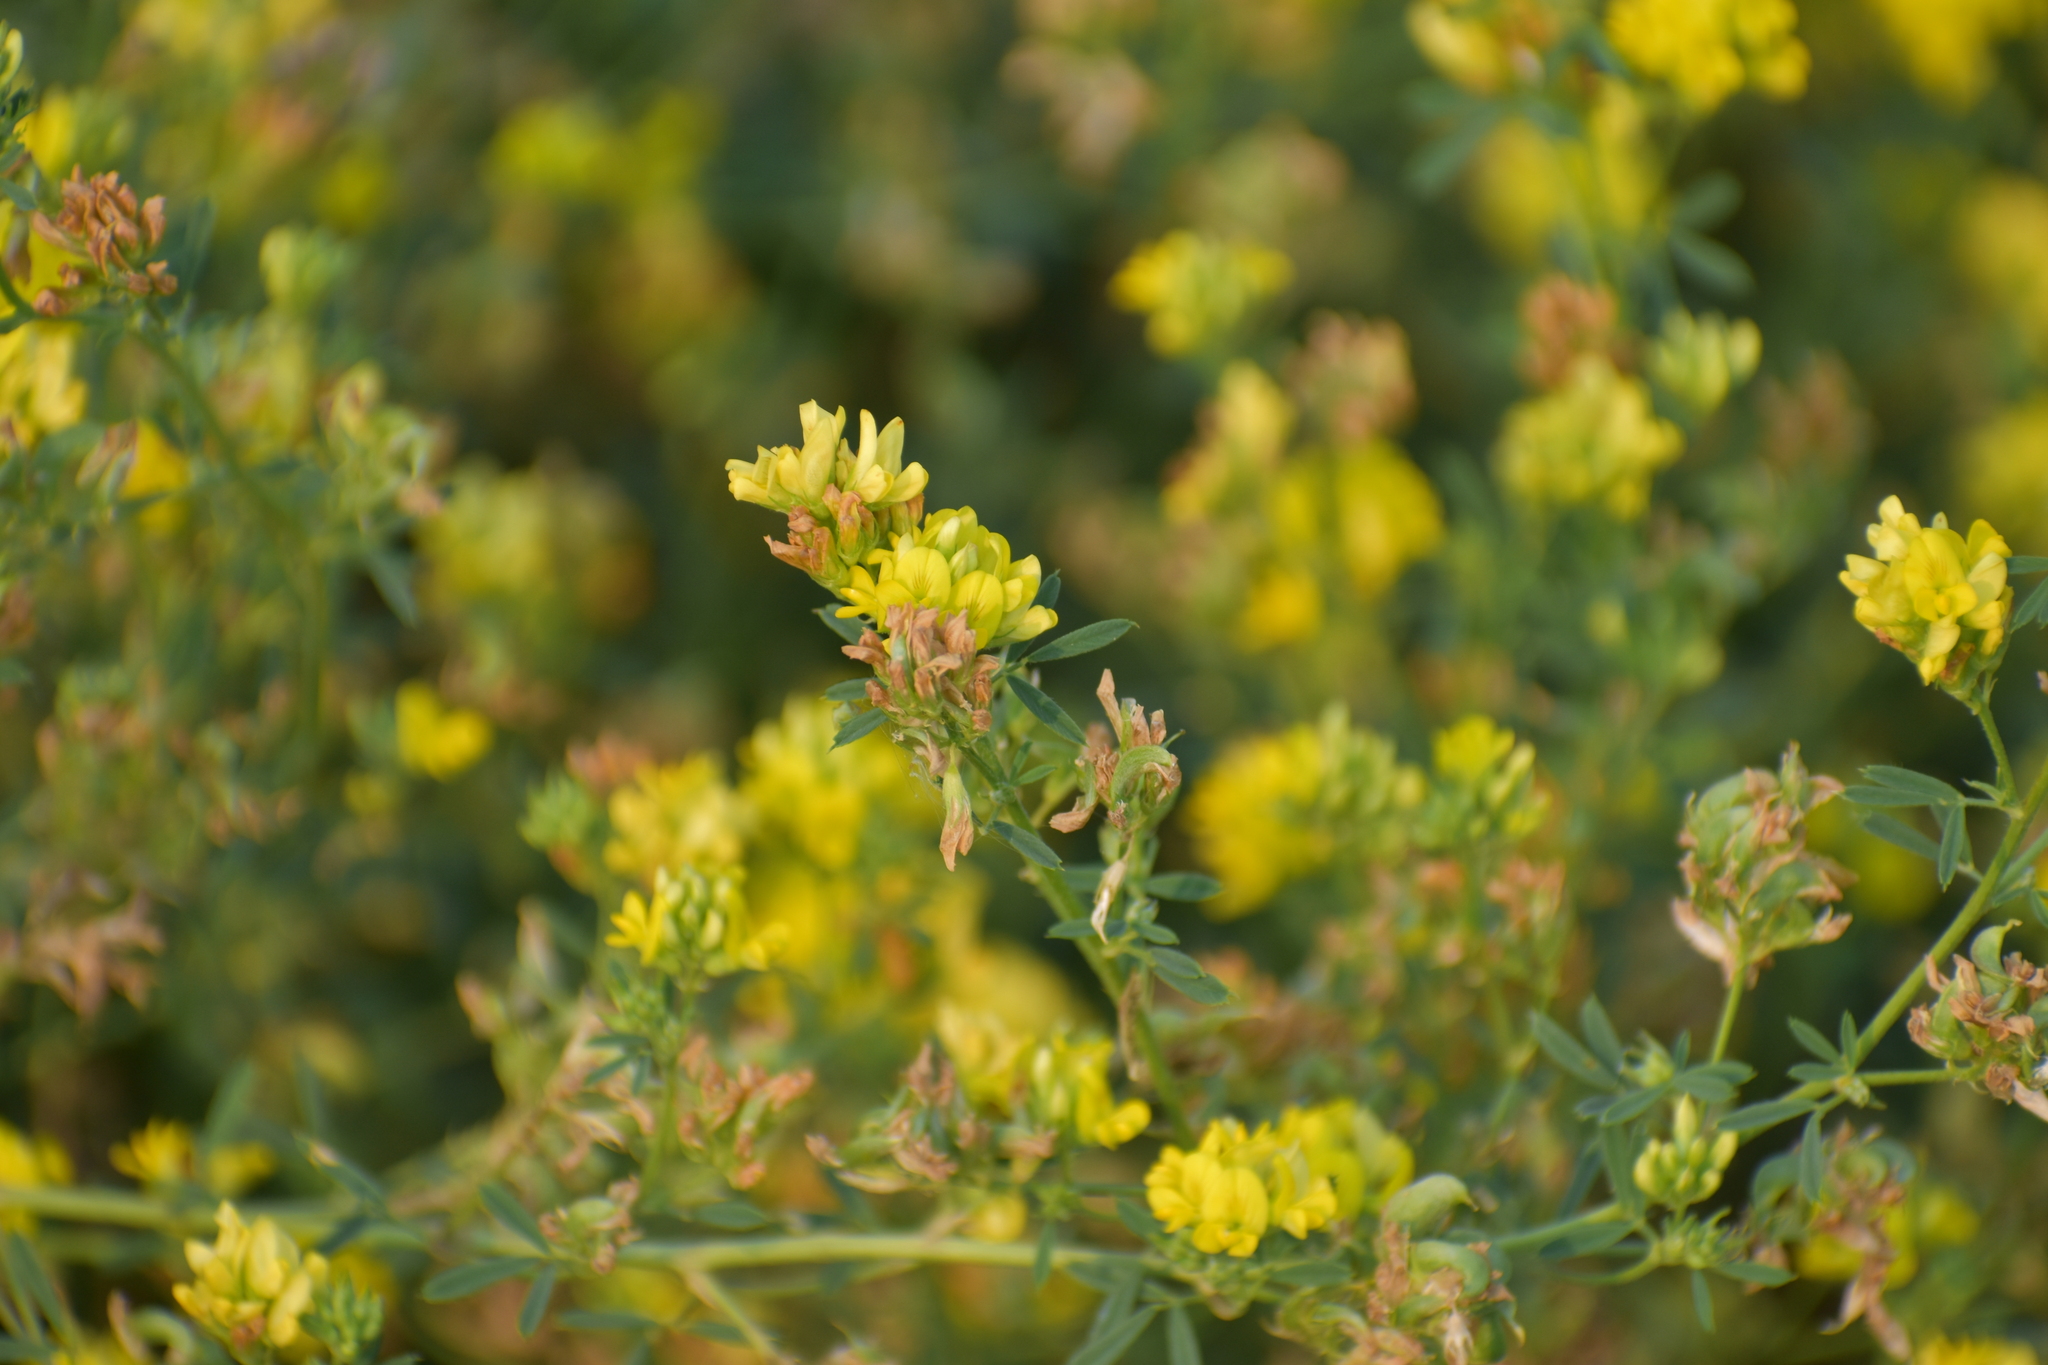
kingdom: Plantae
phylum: Tracheophyta
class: Magnoliopsida
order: Fabales
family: Fabaceae
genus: Medicago
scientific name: Medicago falcata
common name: Sickle medick
